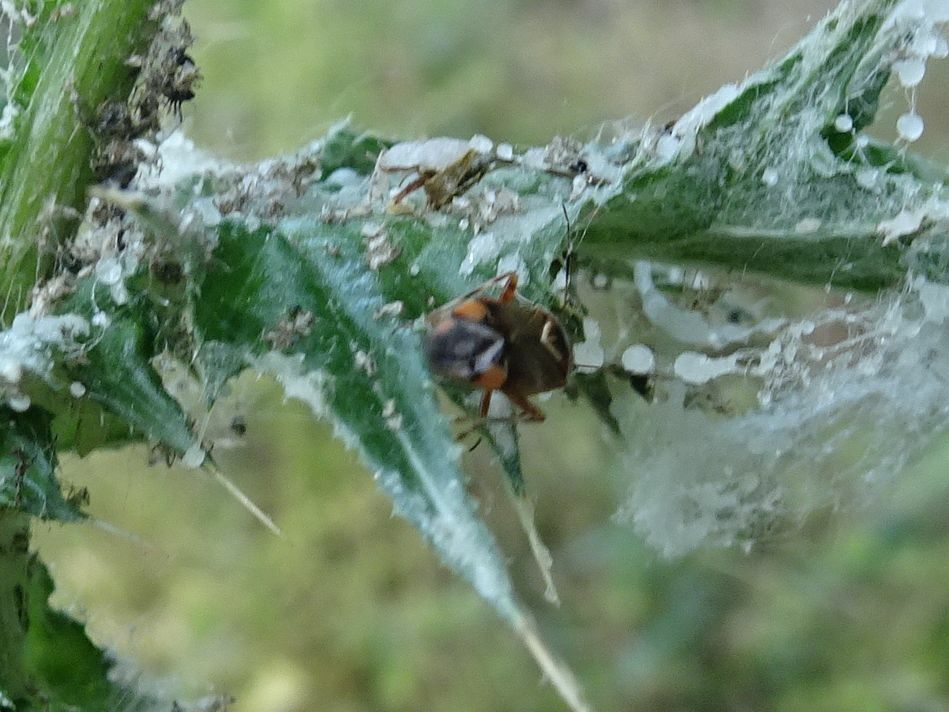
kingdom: Animalia
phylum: Arthropoda
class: Insecta
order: Hemiptera
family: Miridae
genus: Deraeocoris
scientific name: Deraeocoris flavilinea
